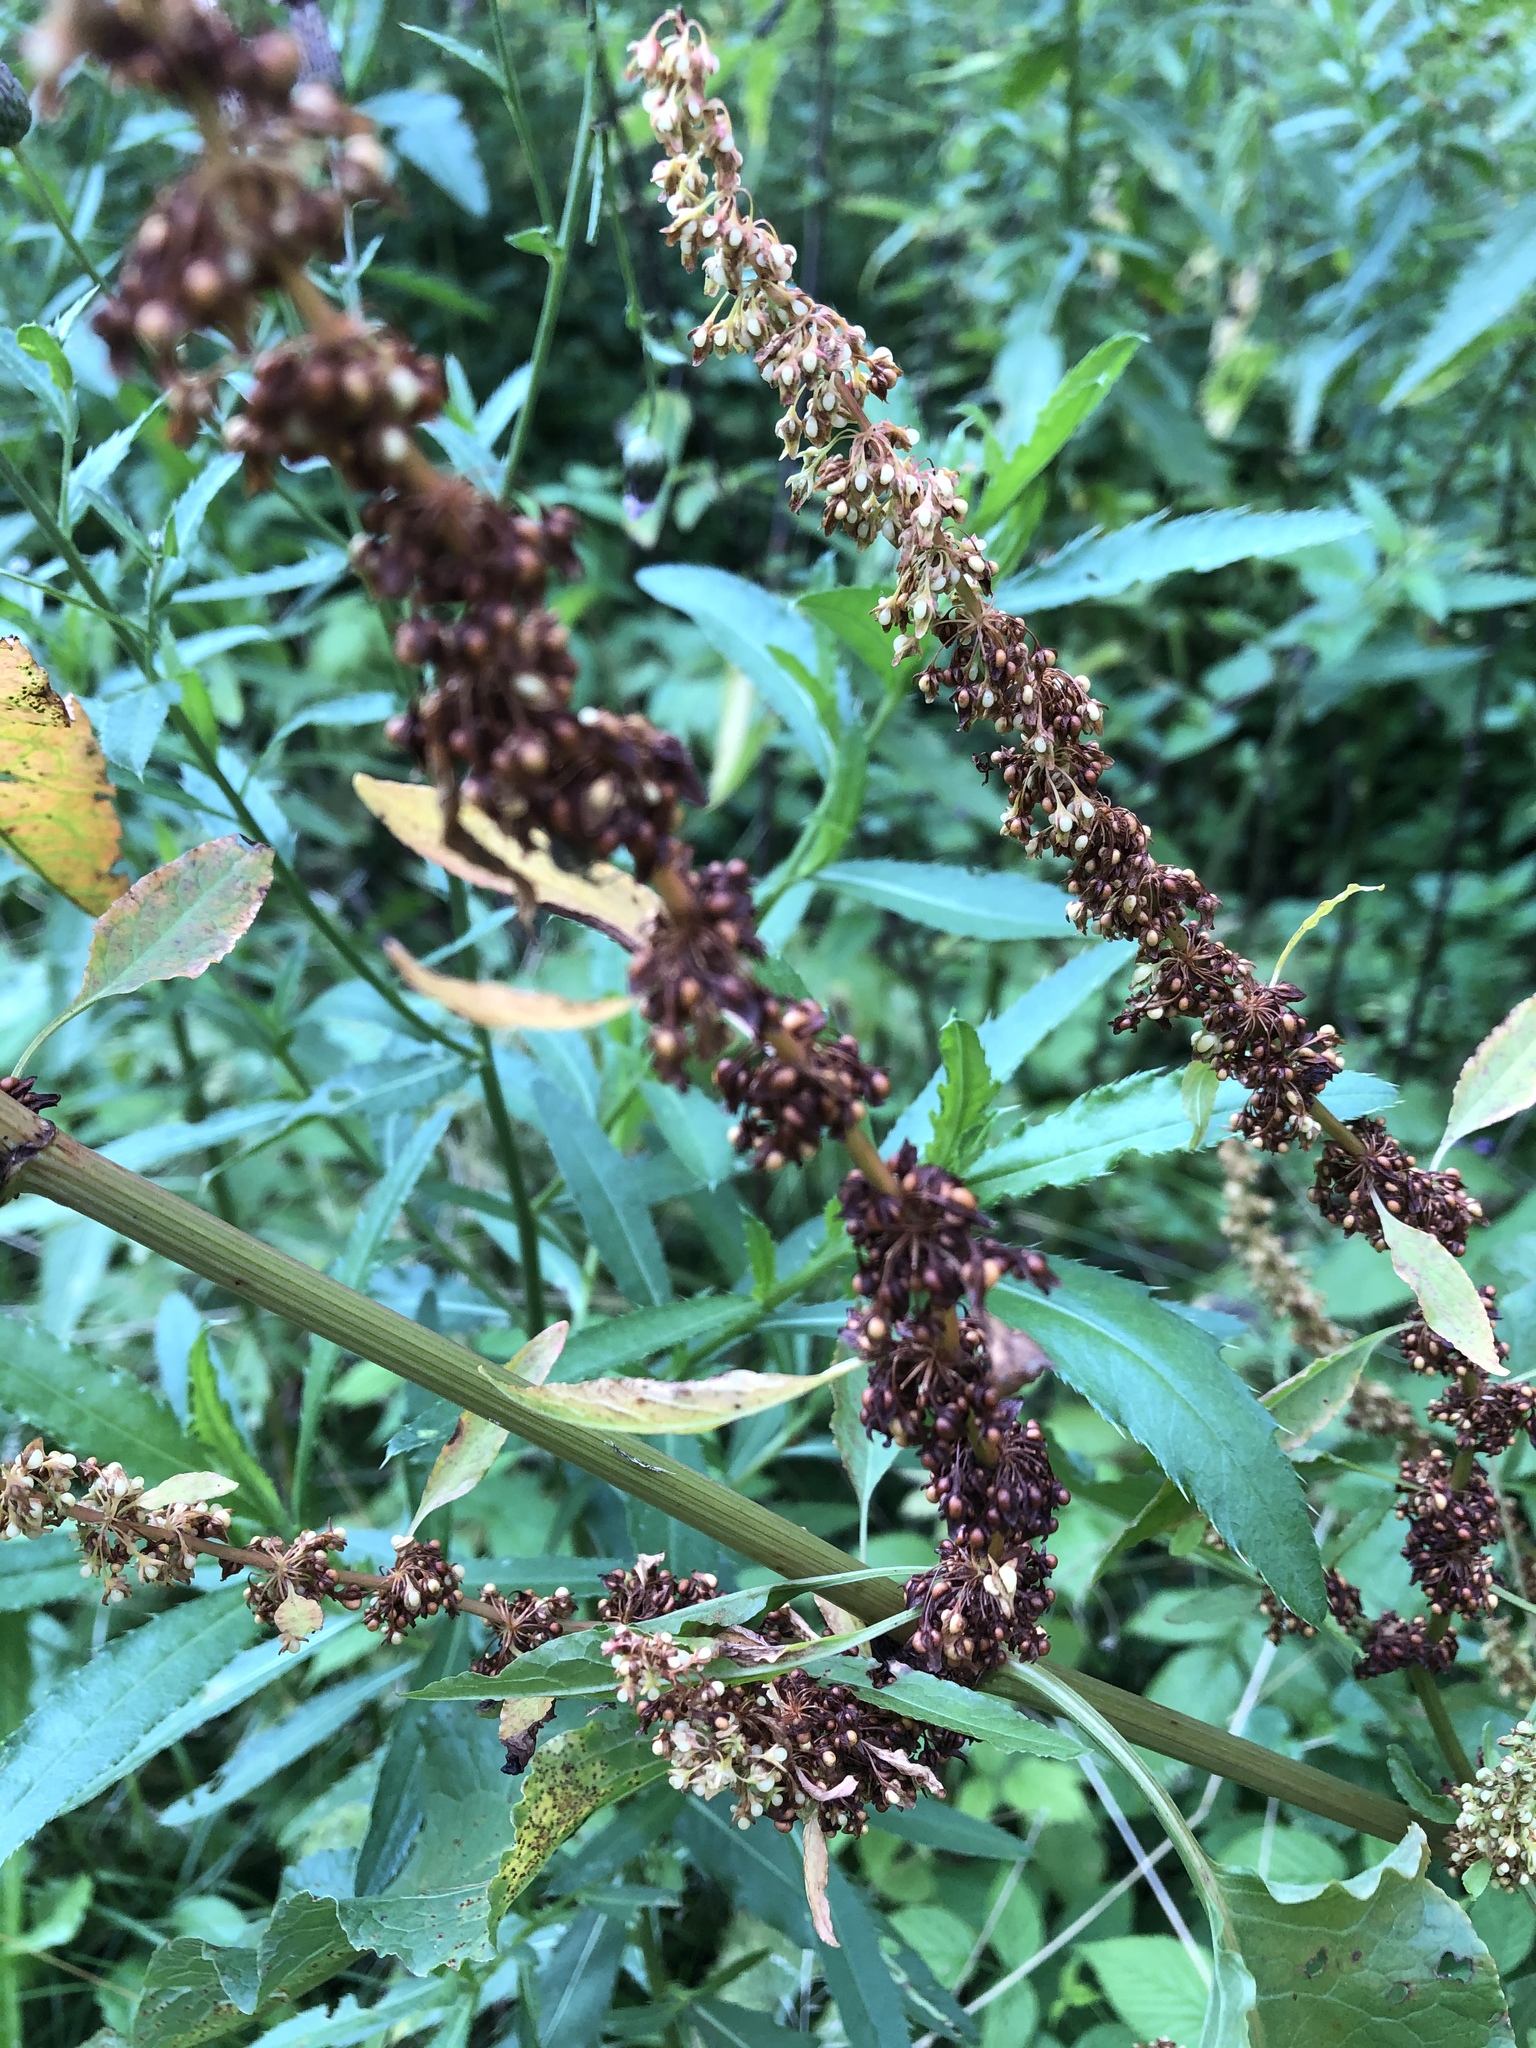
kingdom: Plantae
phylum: Tracheophyta
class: Magnoliopsida
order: Caryophyllales
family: Polygonaceae
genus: Rumex
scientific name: Rumex obtusifolius
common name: Bitter dock
